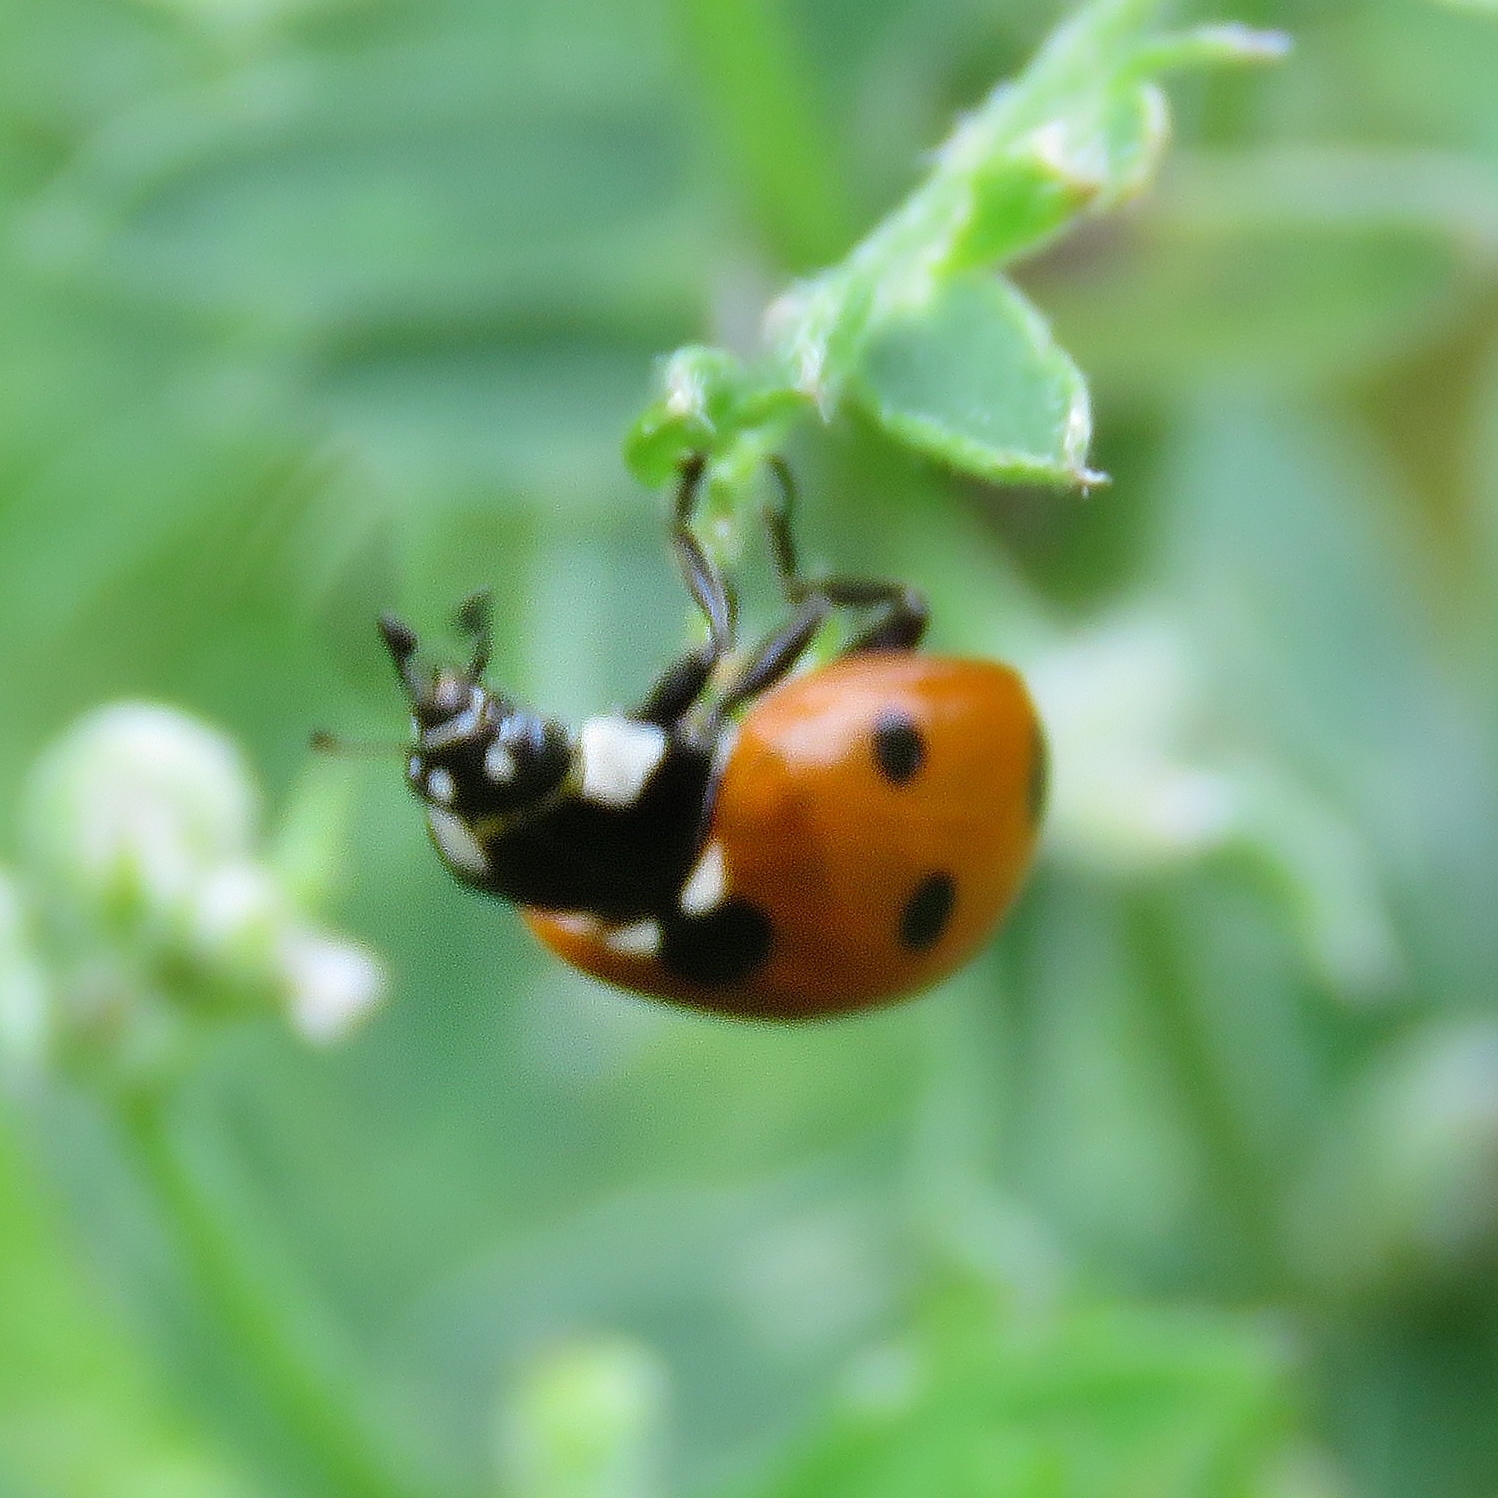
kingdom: Animalia
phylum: Arthropoda
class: Insecta
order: Coleoptera
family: Coccinellidae
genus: Coccinella
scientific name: Coccinella septempunctata
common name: Sevenspotted lady beetle
